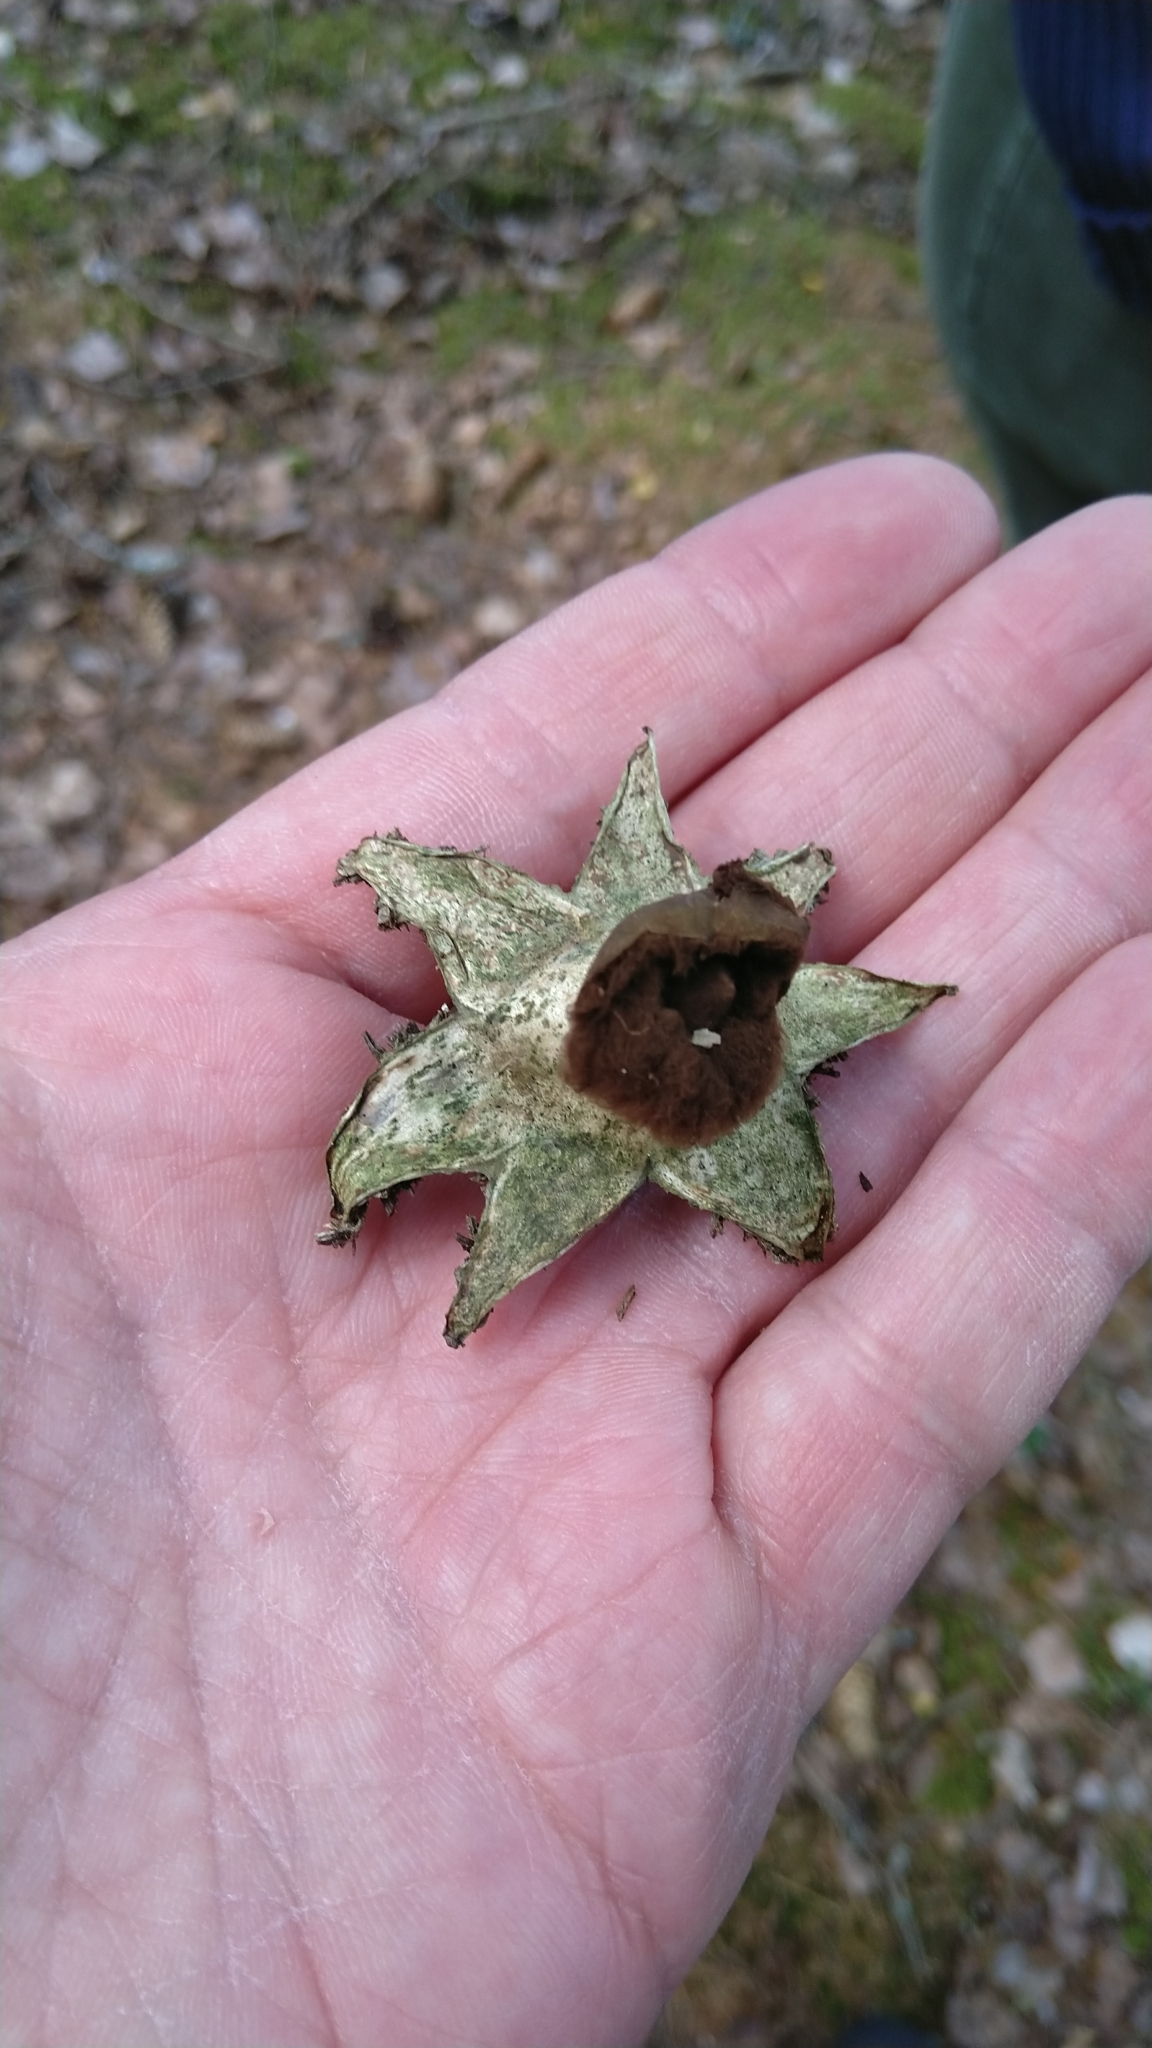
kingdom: Fungi
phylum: Basidiomycota
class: Agaricomycetes
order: Geastrales
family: Geastraceae
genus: Geastrum
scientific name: Geastrum
